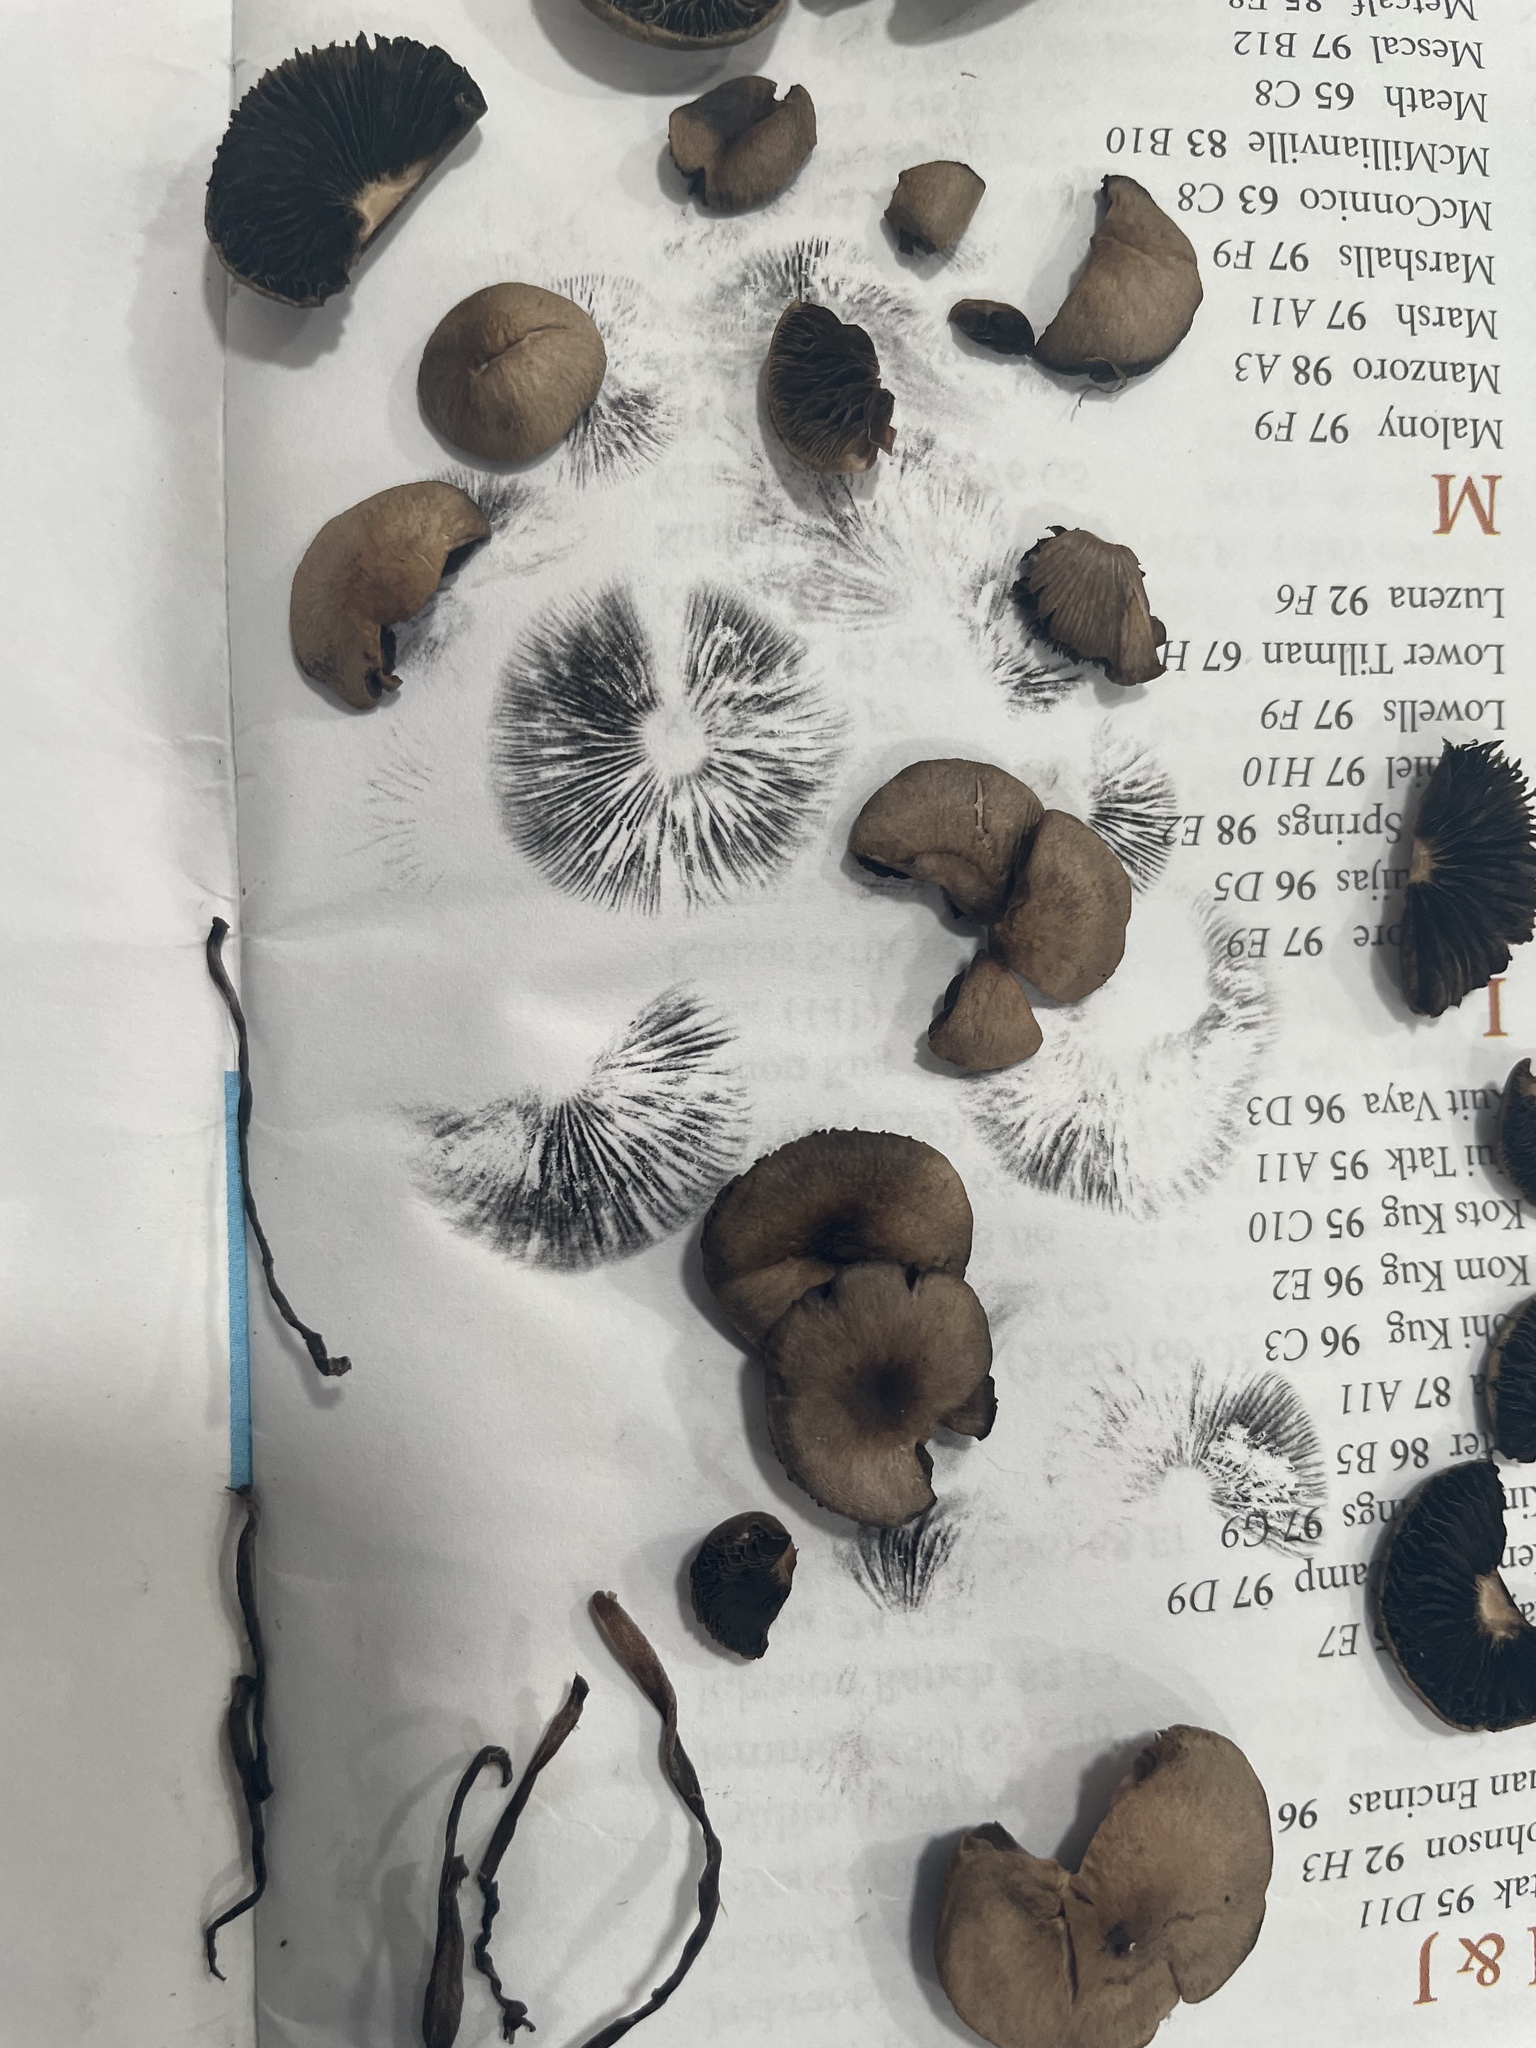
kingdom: Fungi
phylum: Basidiomycota
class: Agaricomycetes
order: Agaricales
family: Bolbitiaceae
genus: Panaeolus
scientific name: Panaeolus subbalteatus
